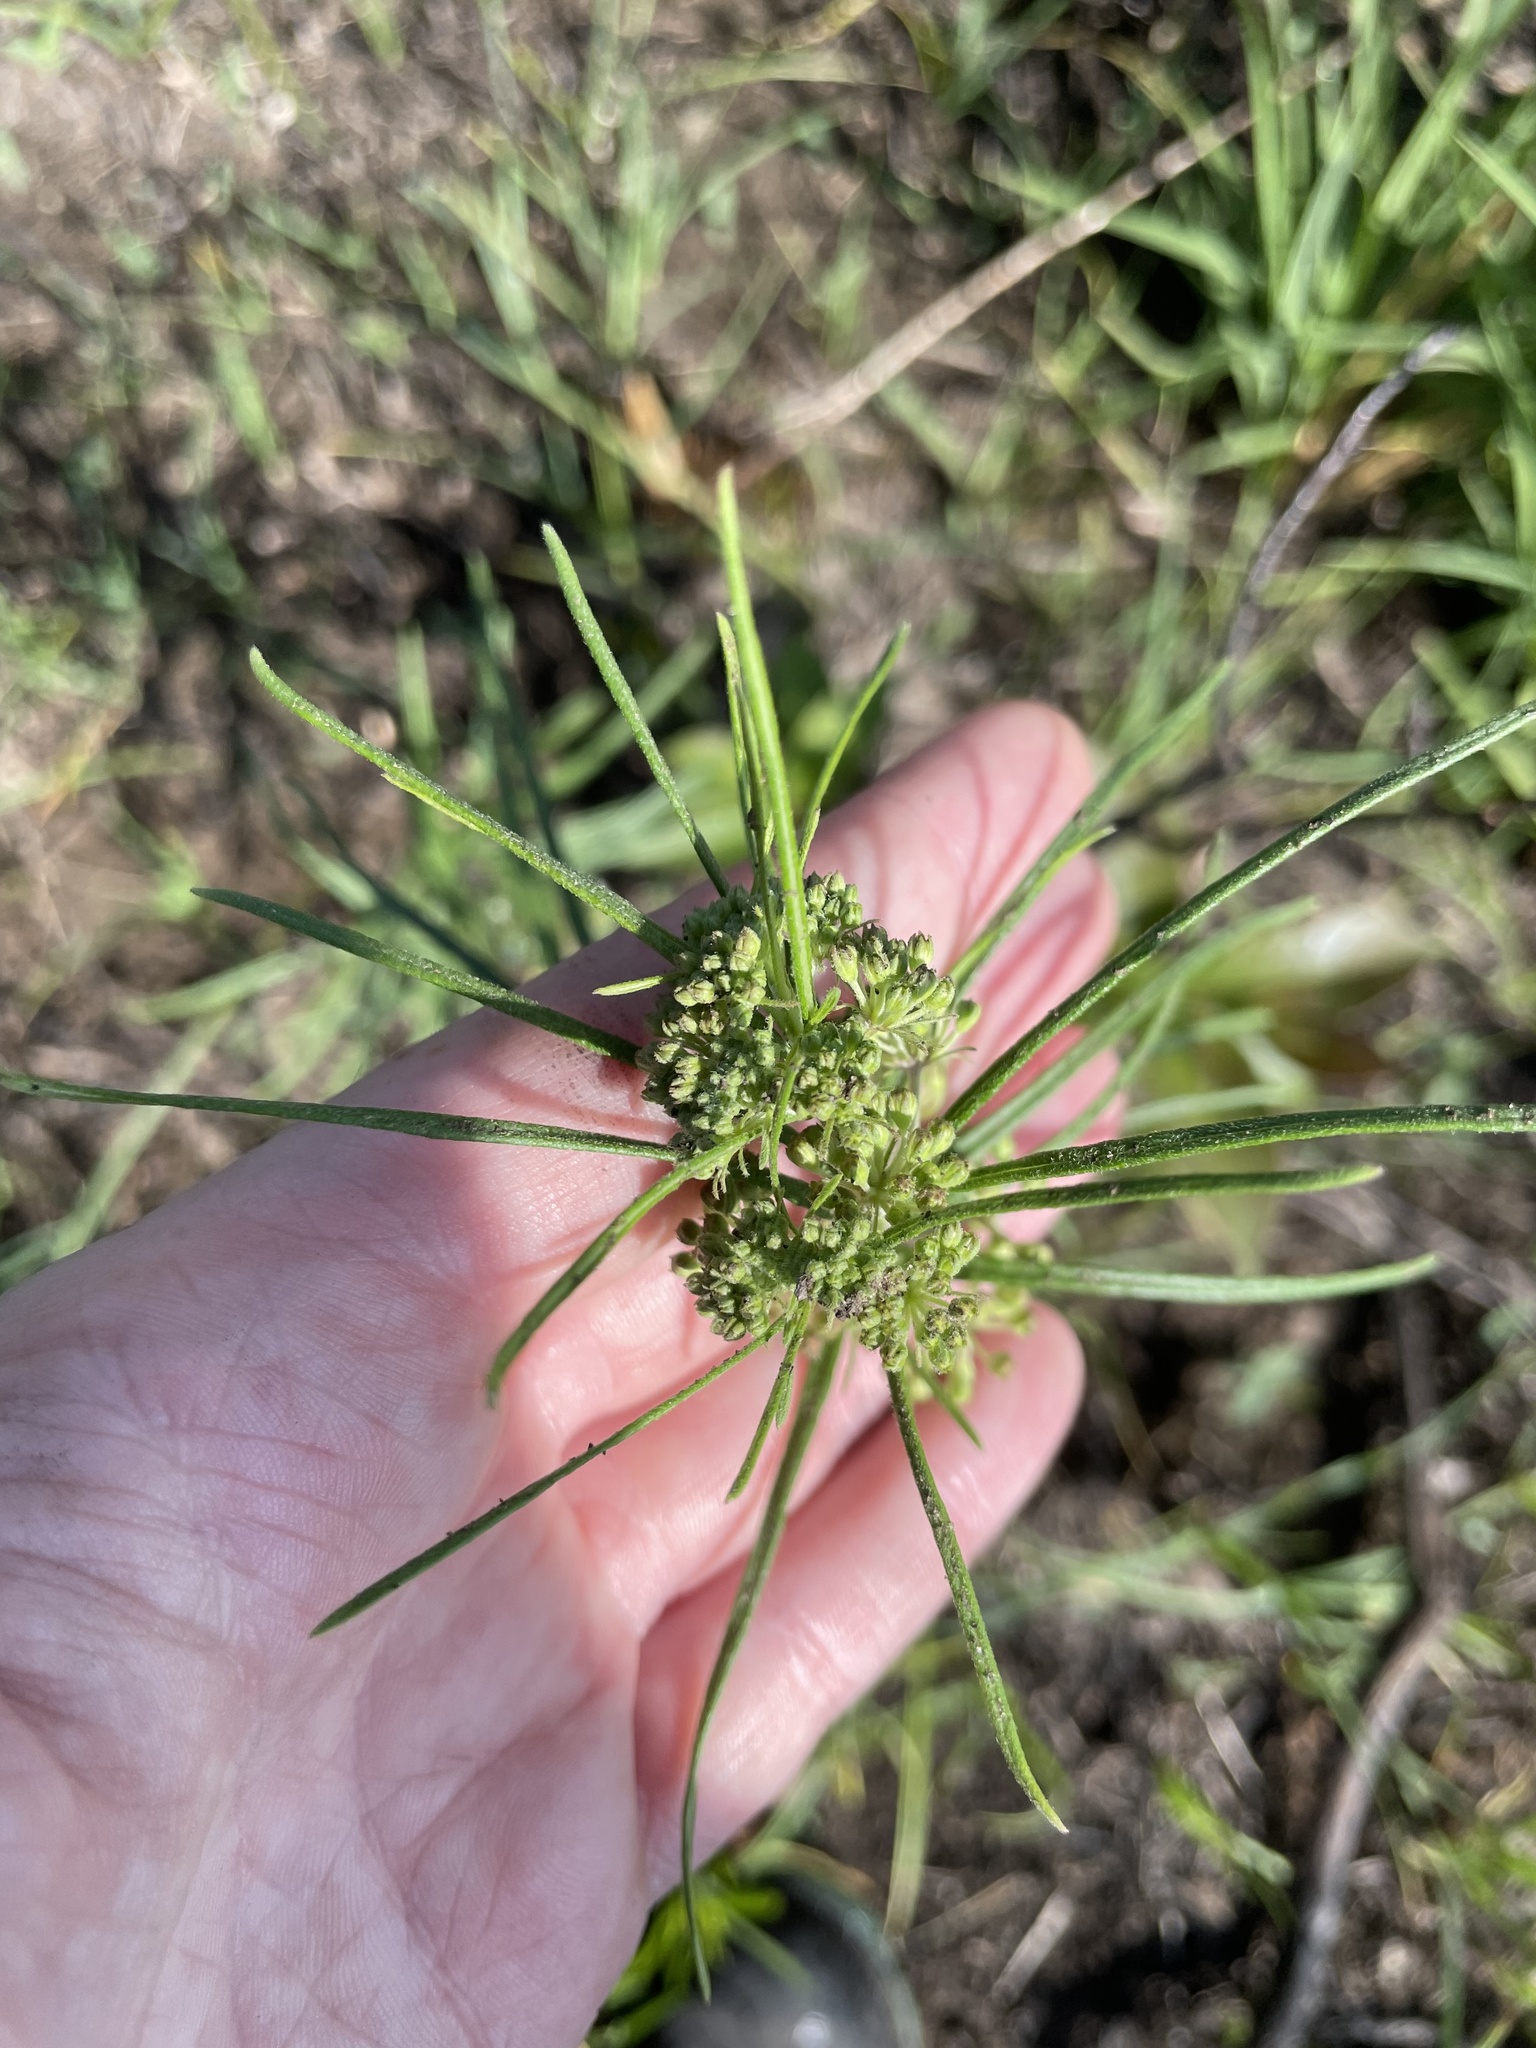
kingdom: Plantae
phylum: Tracheophyta
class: Magnoliopsida
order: Gentianales
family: Apocynaceae
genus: Asclepias
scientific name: Asclepias verticillata
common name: Eastern whorled milkweed
